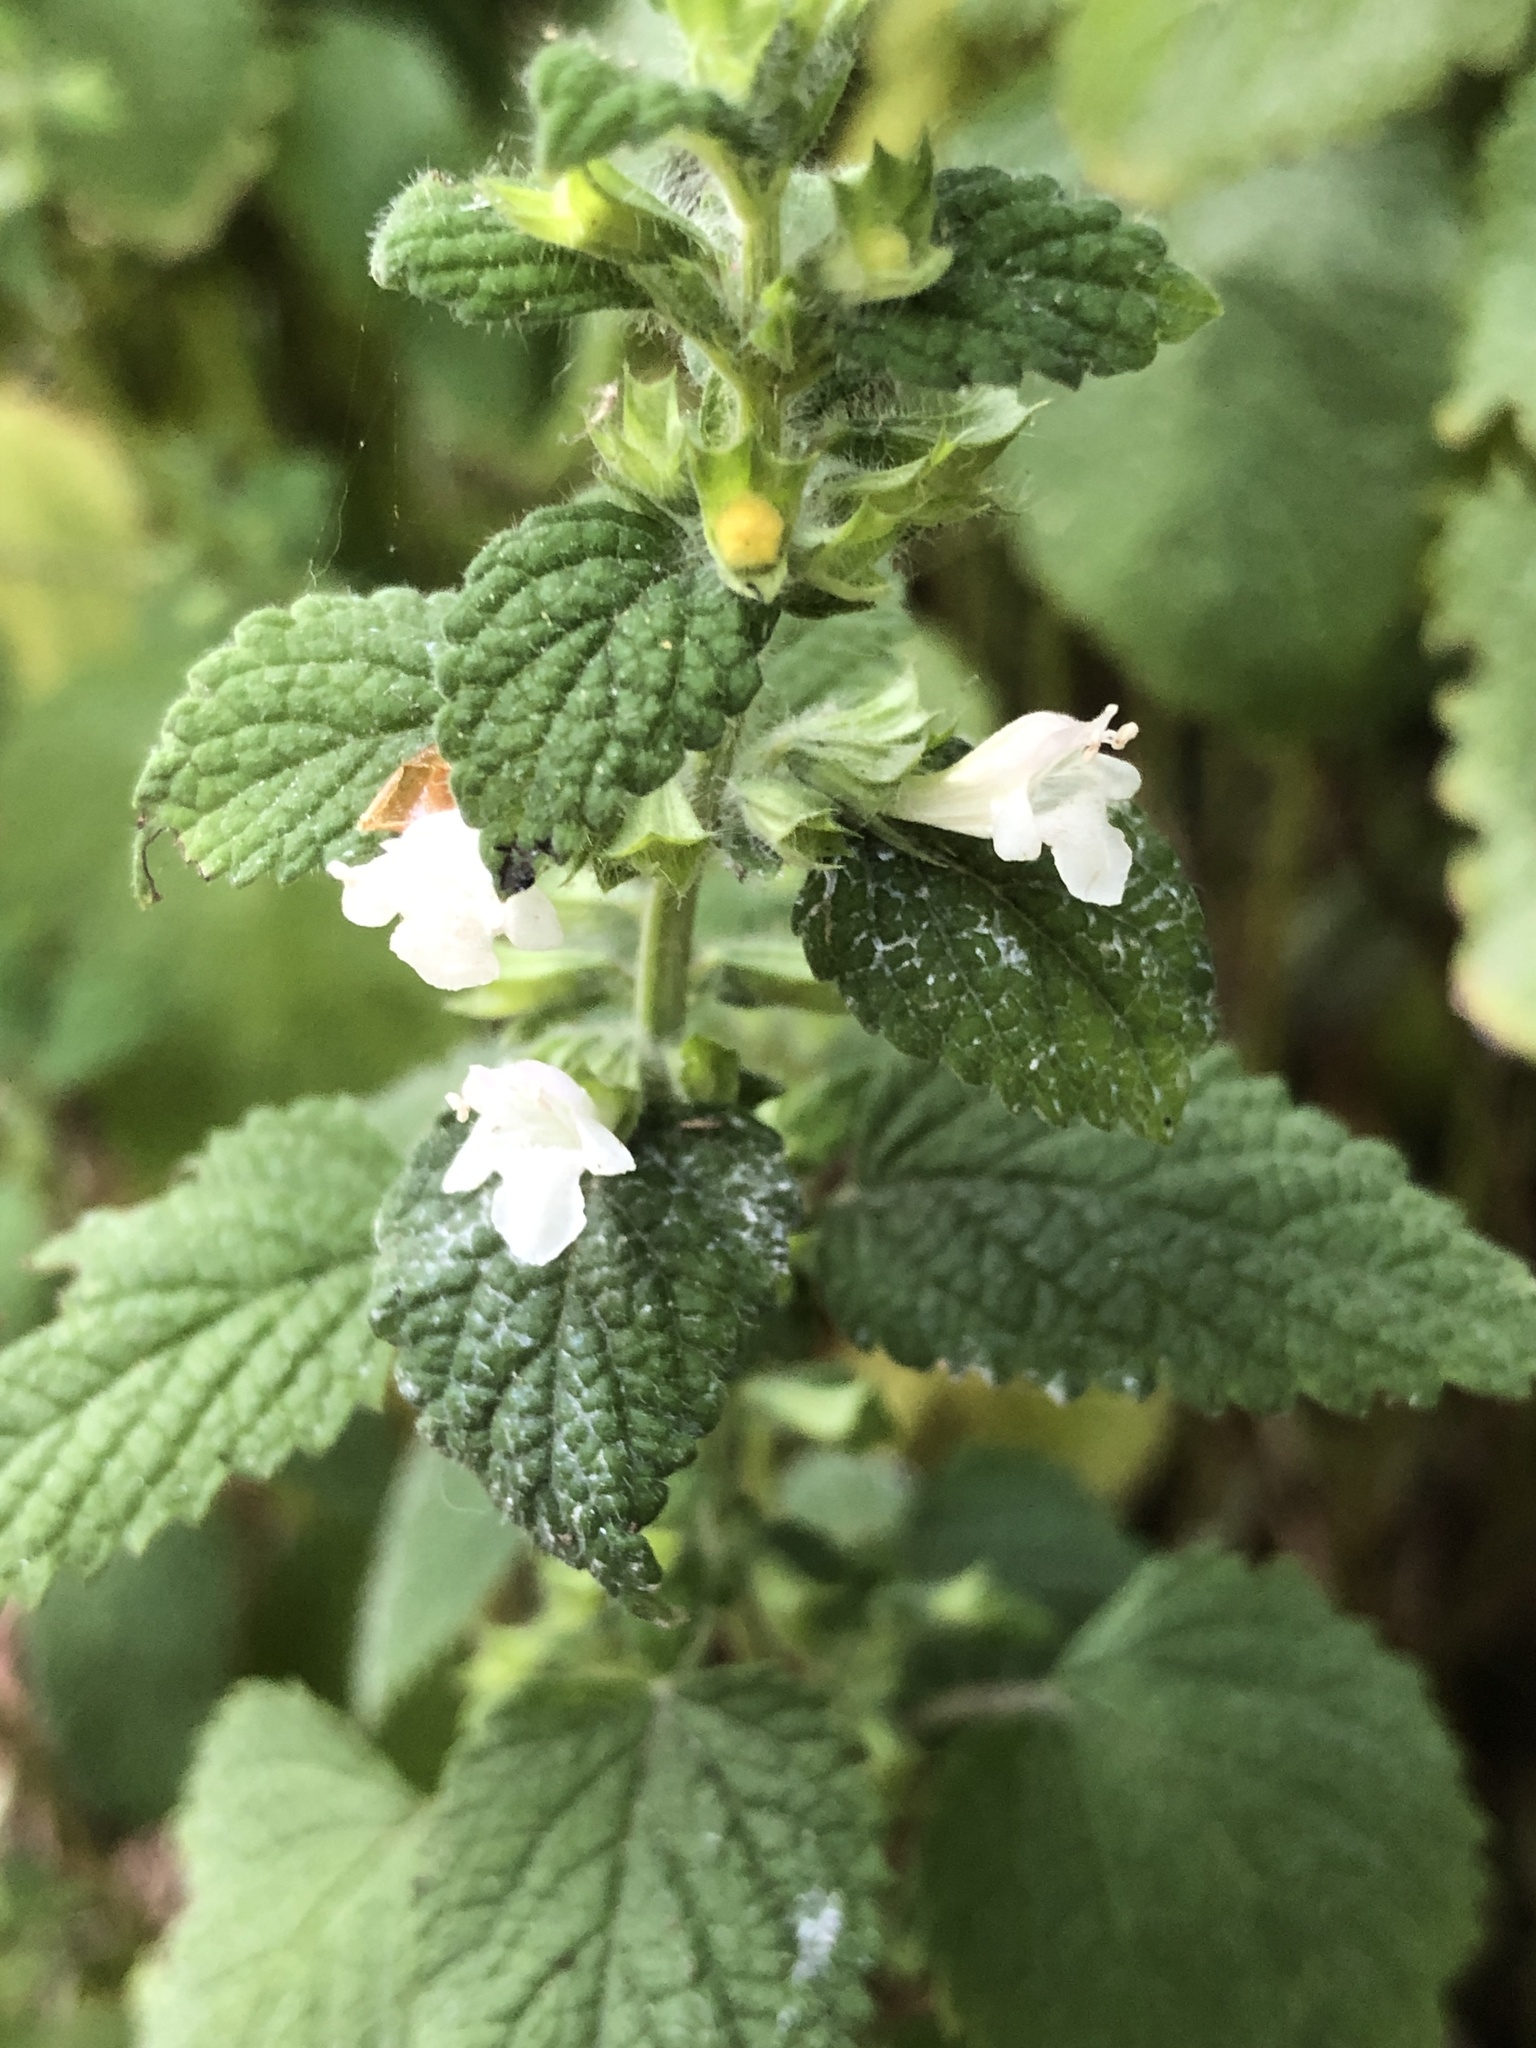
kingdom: Plantae
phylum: Tracheophyta
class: Magnoliopsida
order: Lamiales
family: Lamiaceae
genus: Melissa
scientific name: Melissa officinalis
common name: Balm
